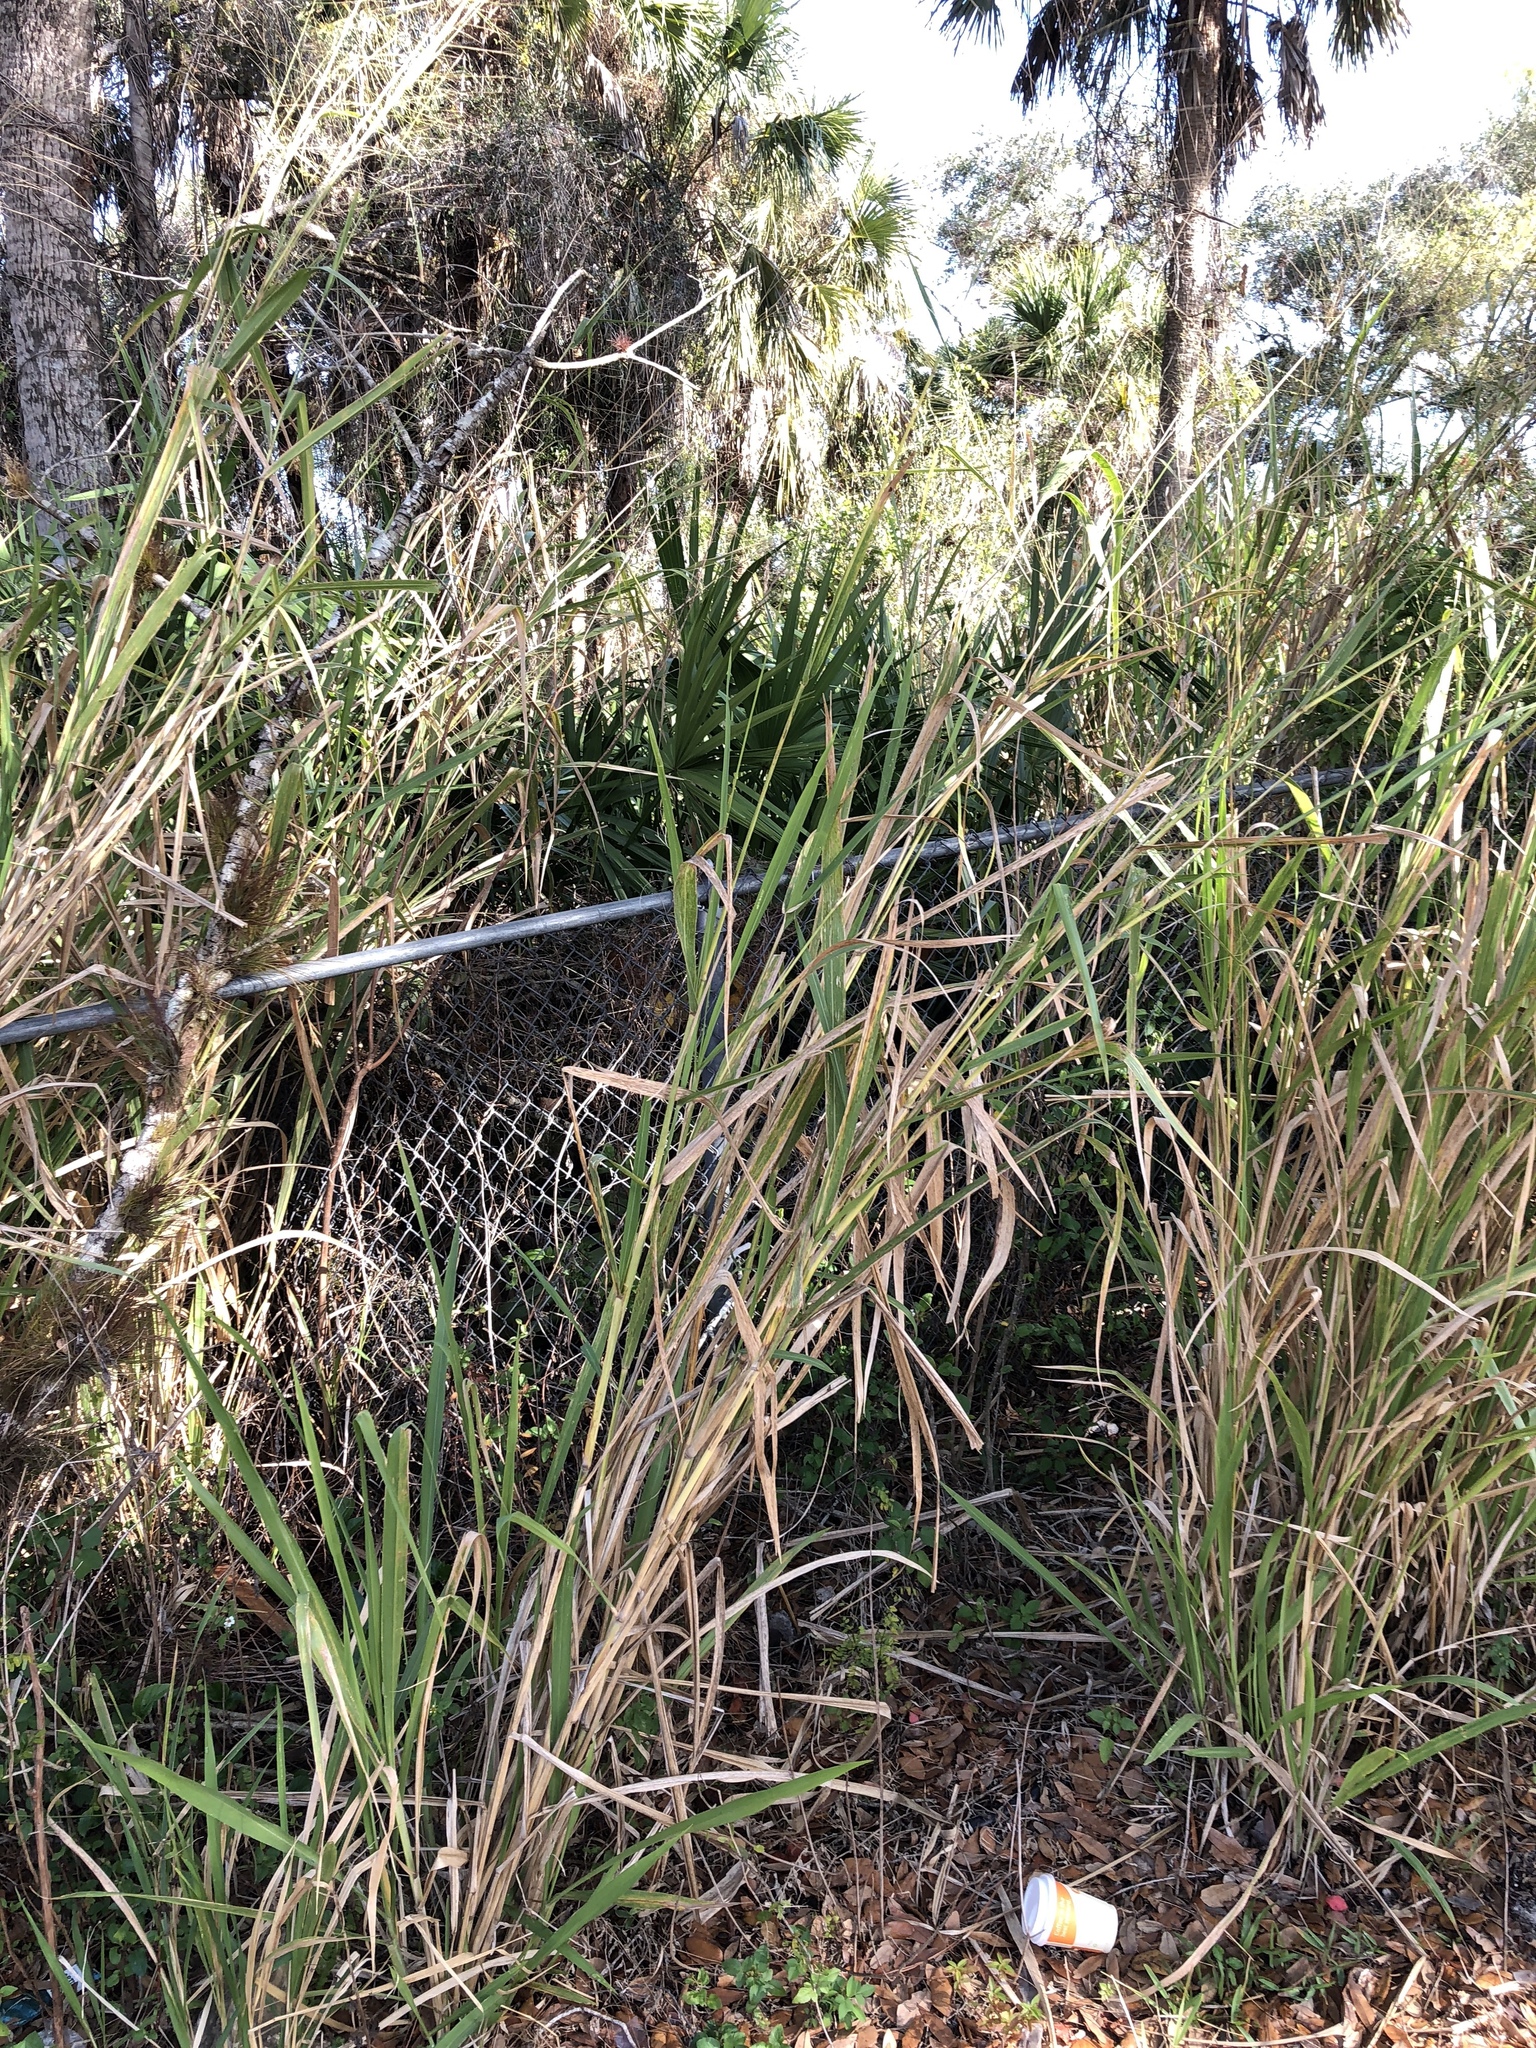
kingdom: Plantae
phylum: Tracheophyta
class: Liliopsida
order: Poales
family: Poaceae
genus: Megathyrsus
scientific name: Megathyrsus maximus
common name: Guineagrass
